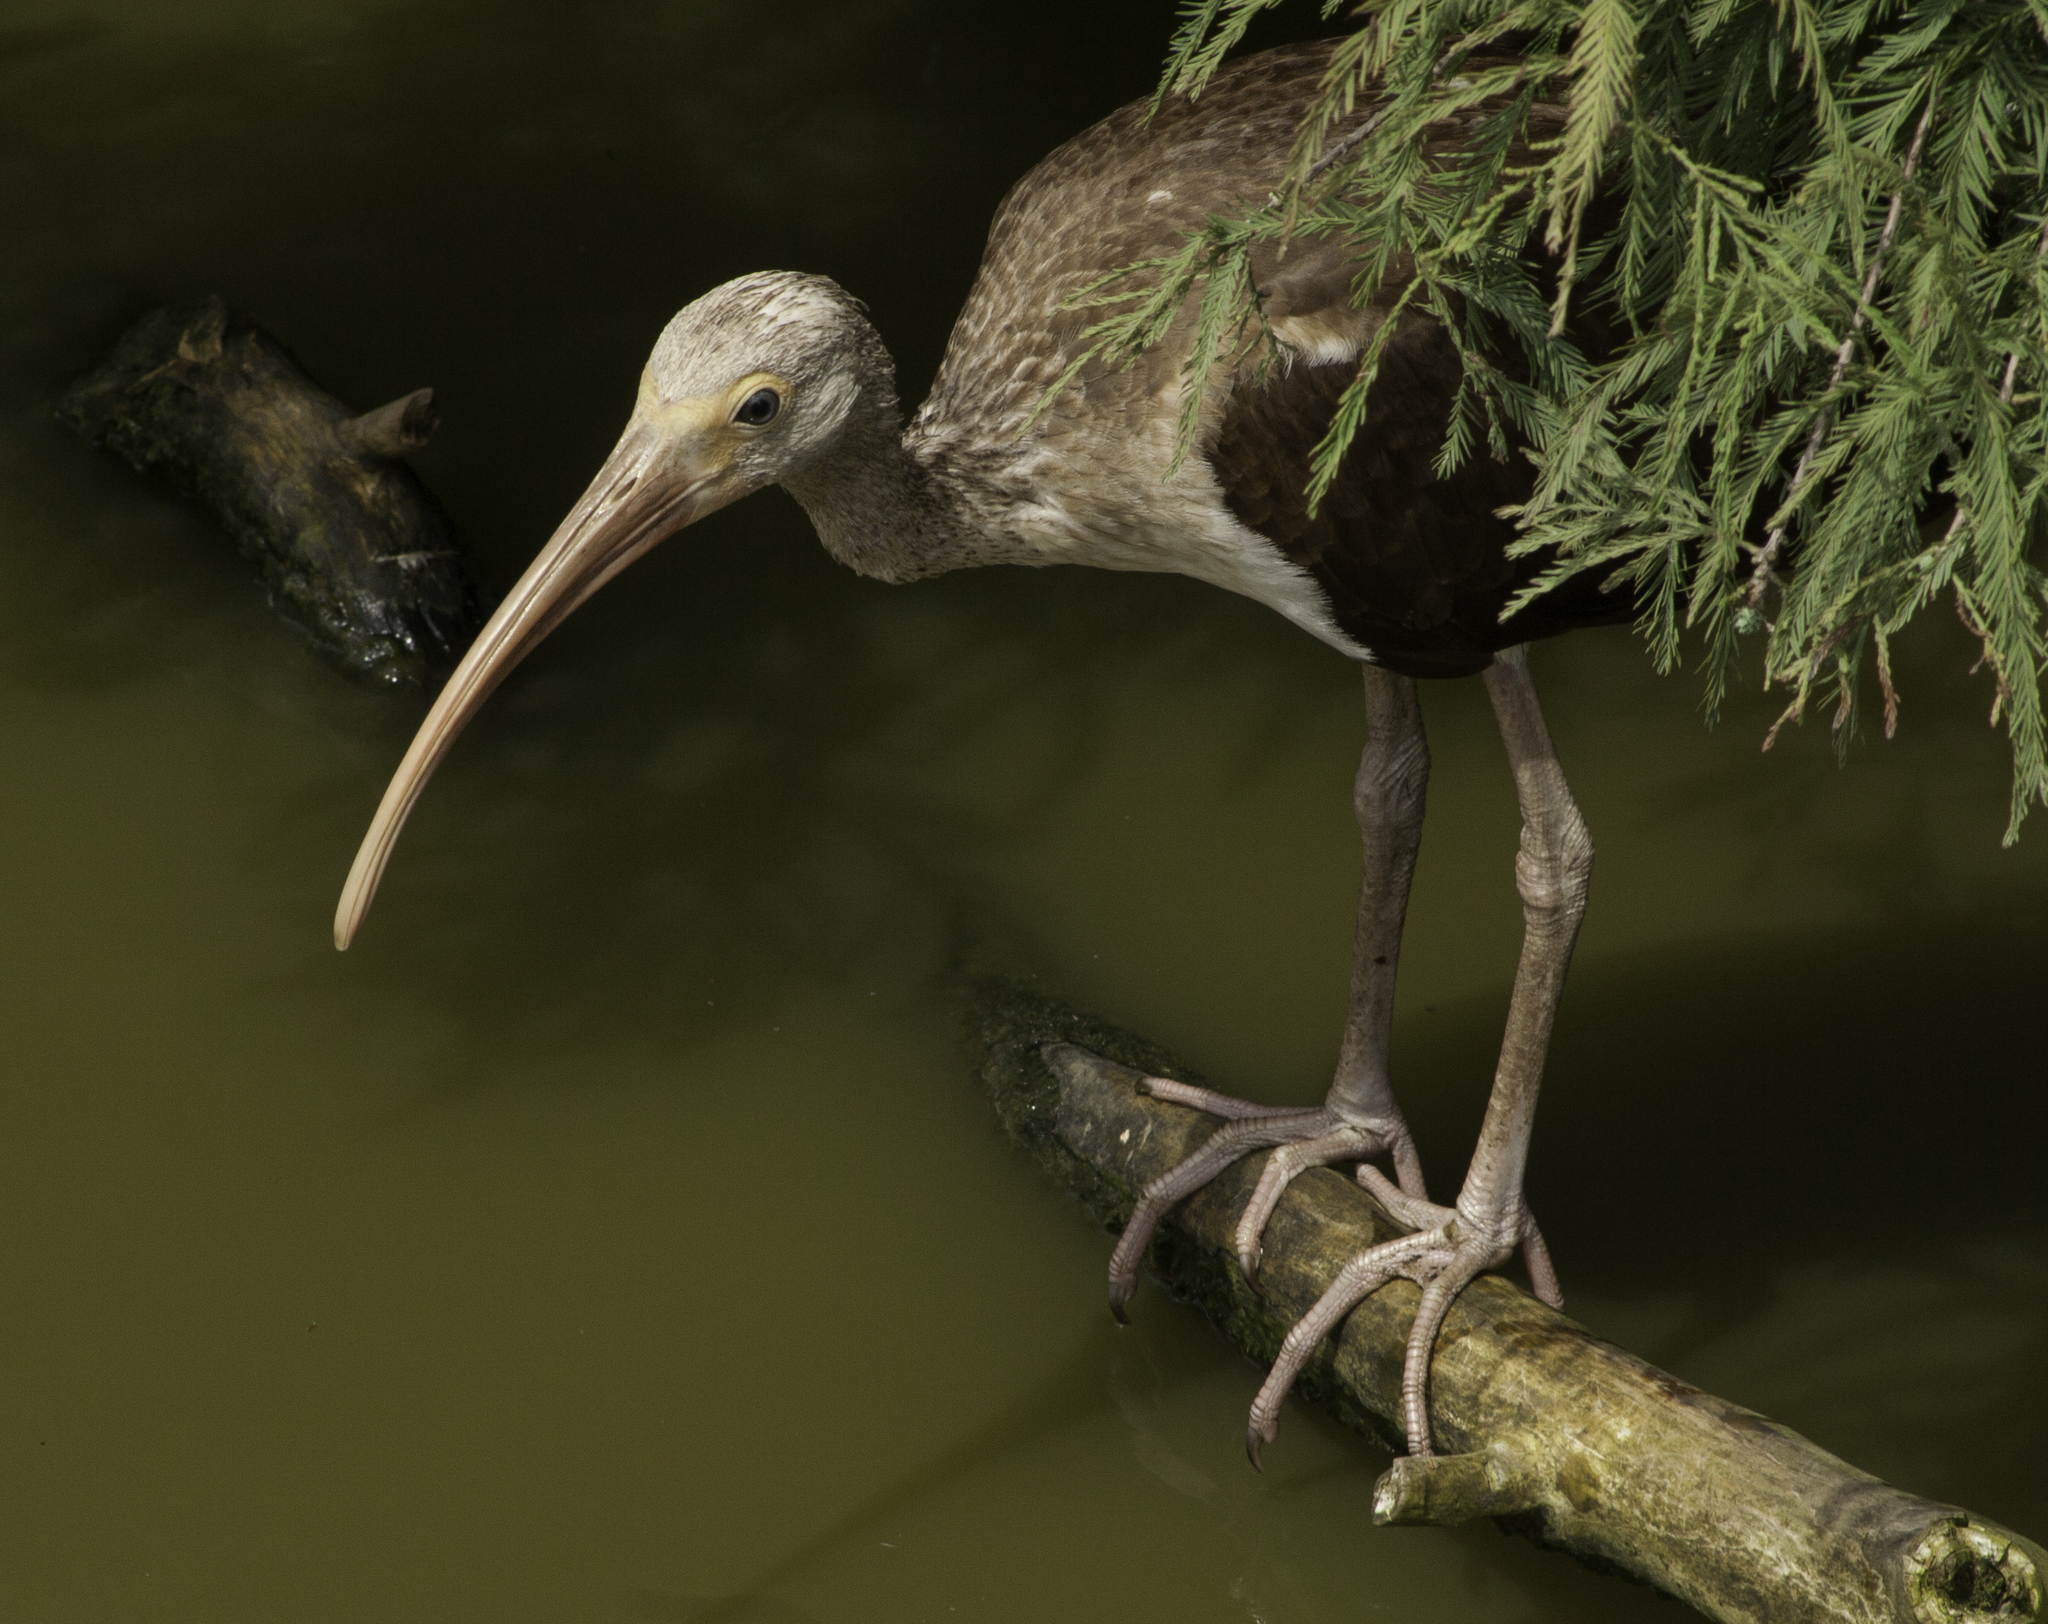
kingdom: Animalia
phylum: Chordata
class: Aves
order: Pelecaniformes
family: Threskiornithidae
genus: Eudocimus
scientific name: Eudocimus albus
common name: White ibis
